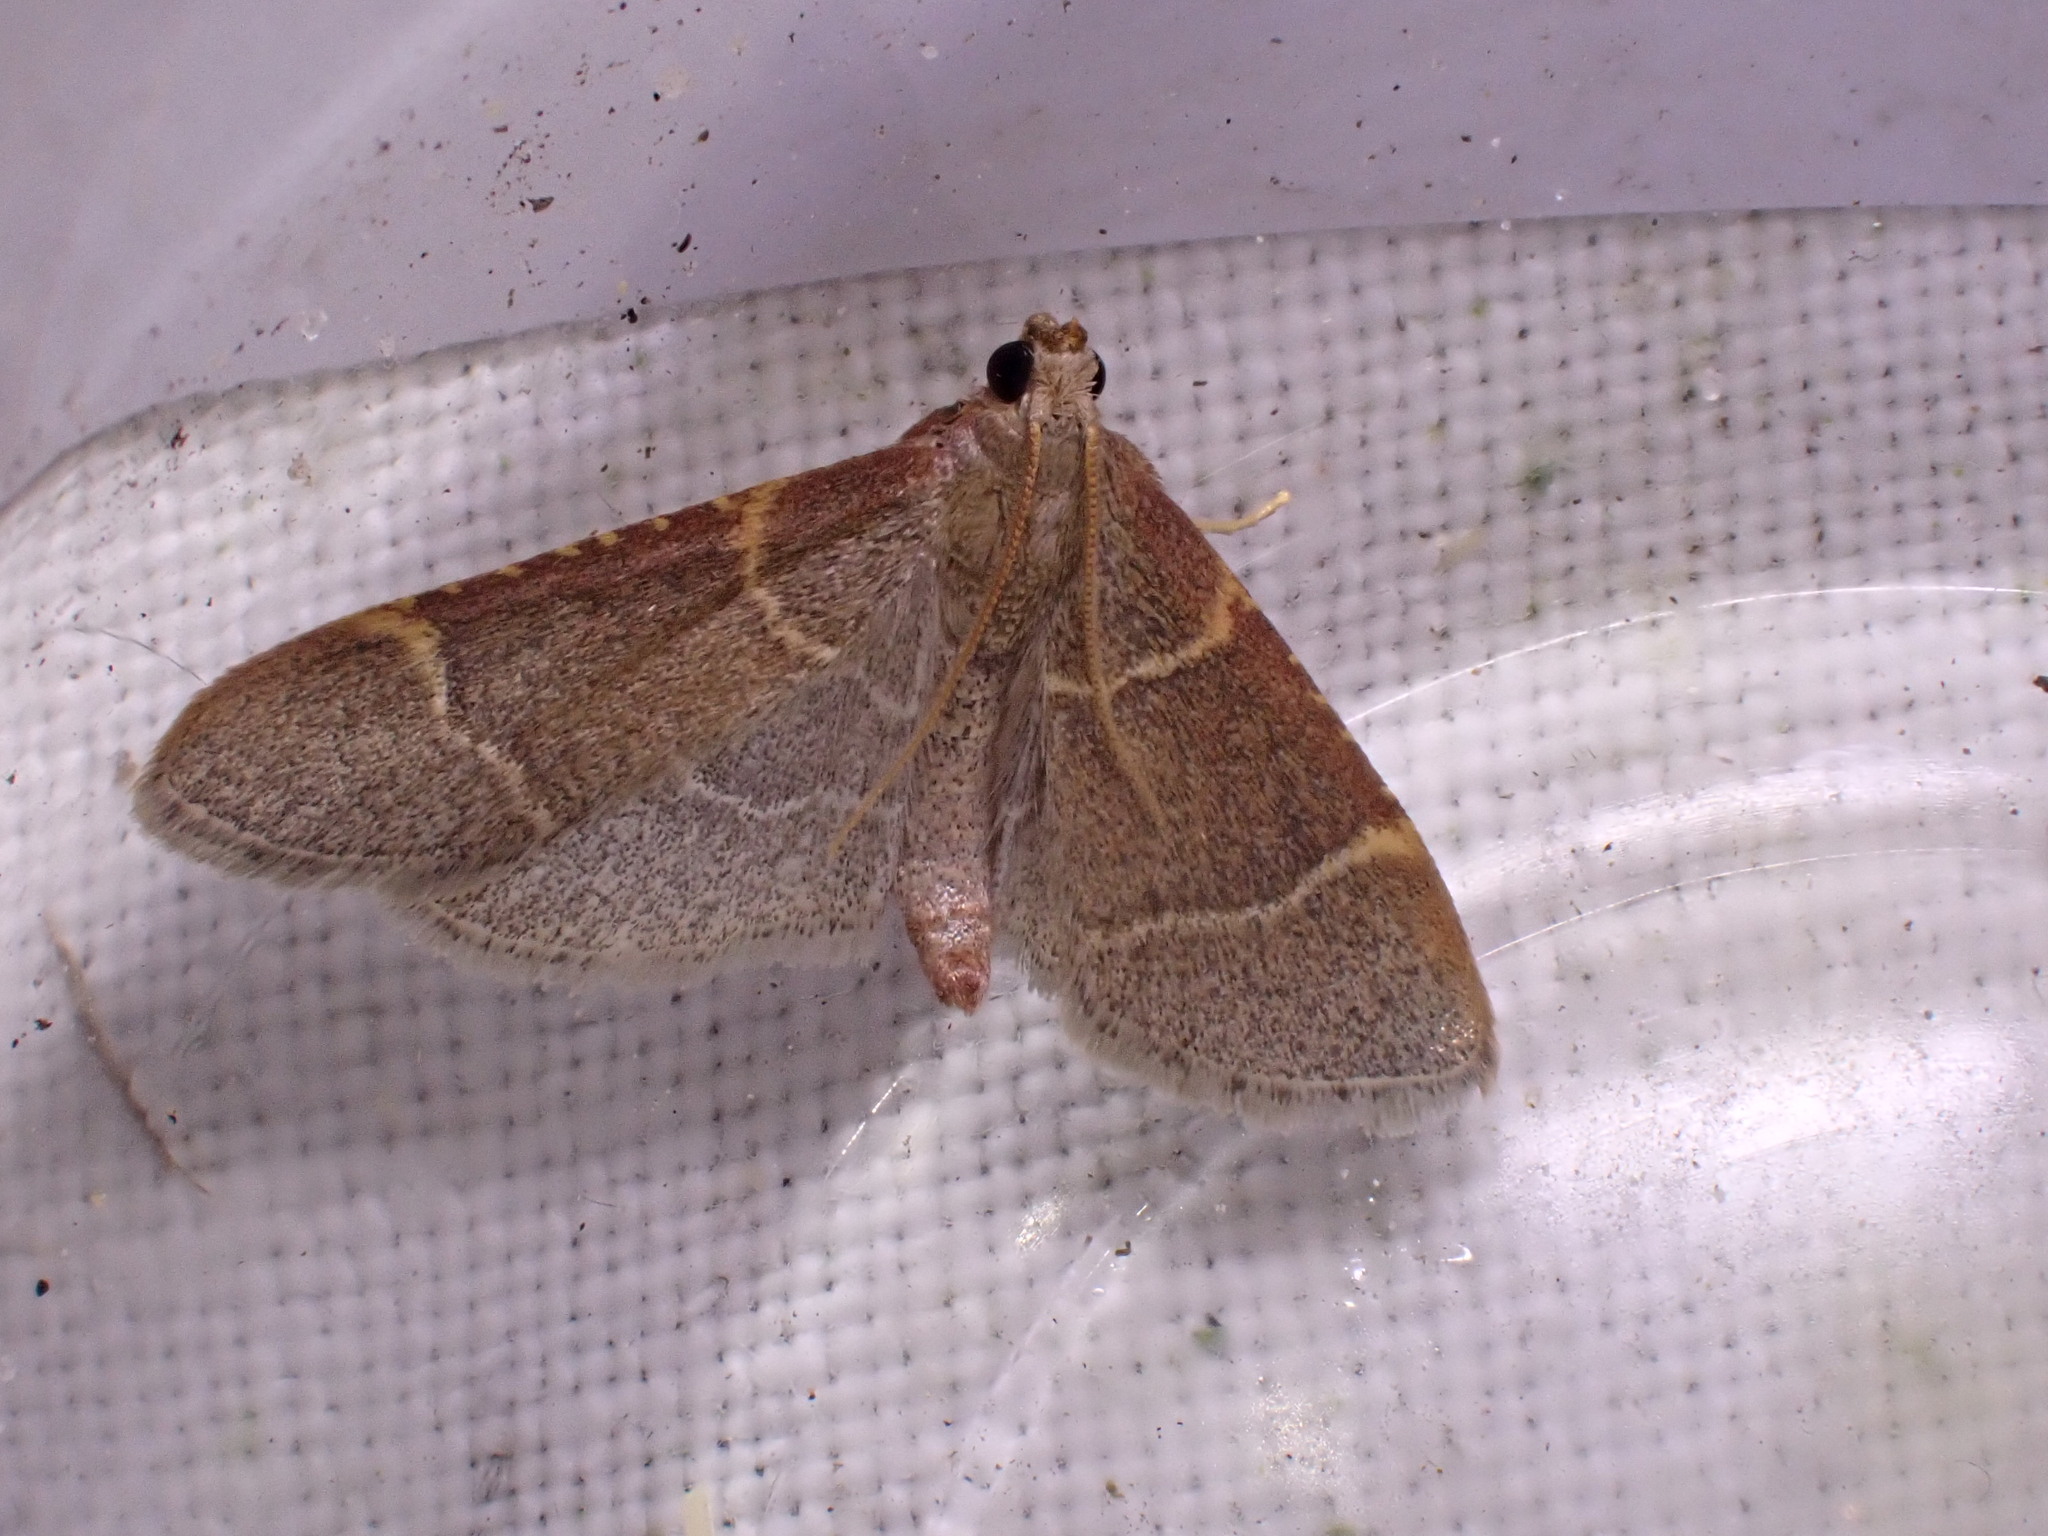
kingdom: Animalia
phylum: Arthropoda
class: Insecta
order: Lepidoptera
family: Pyralidae
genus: Hypsopygia
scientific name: Hypsopygia glaucinalis
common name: Double-striped tabby
